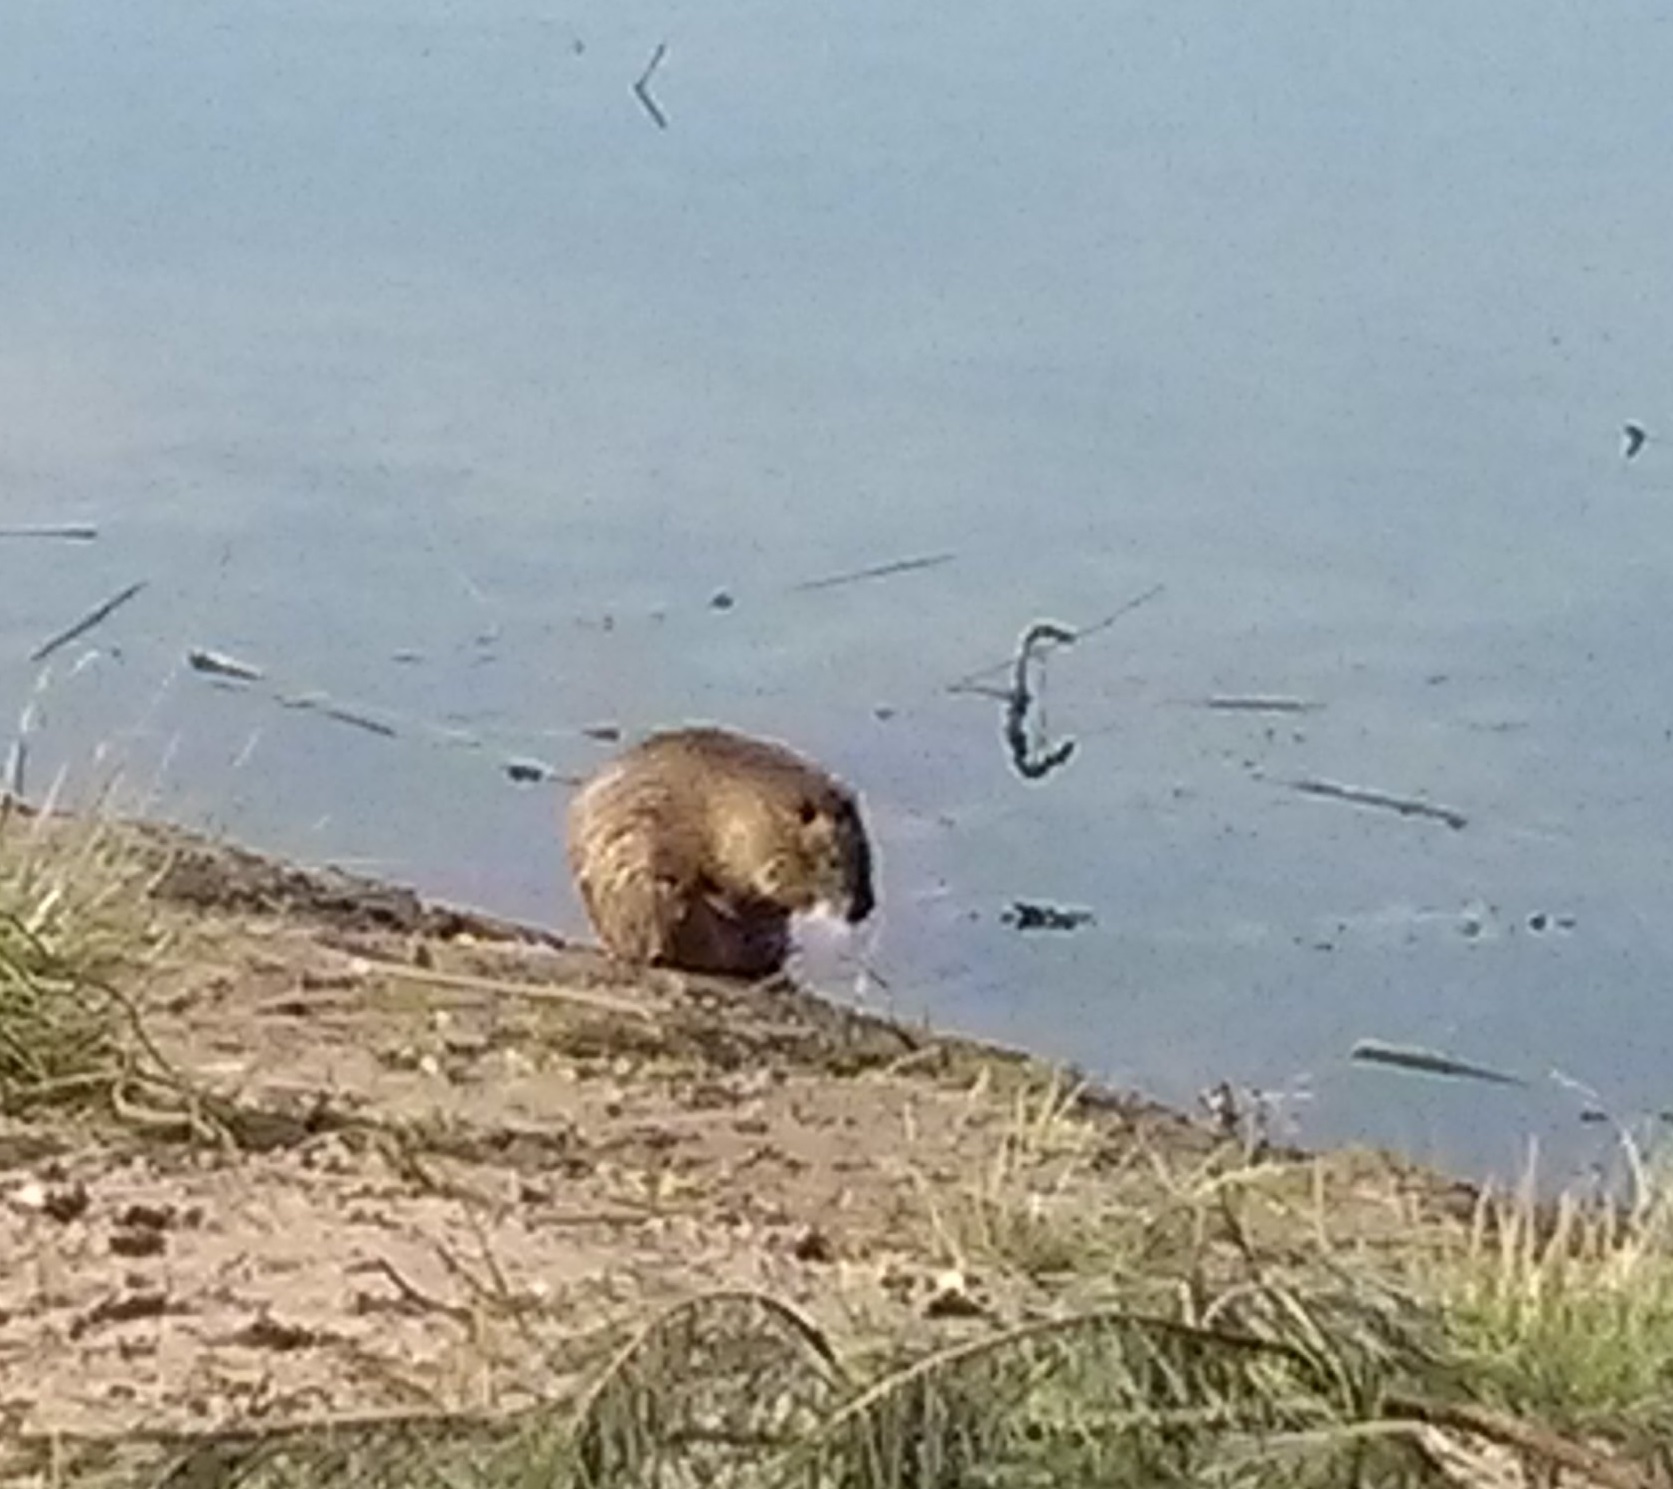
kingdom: Animalia
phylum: Chordata
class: Mammalia
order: Rodentia
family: Myocastoridae
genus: Myocastor
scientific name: Myocastor coypus
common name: Coypu
